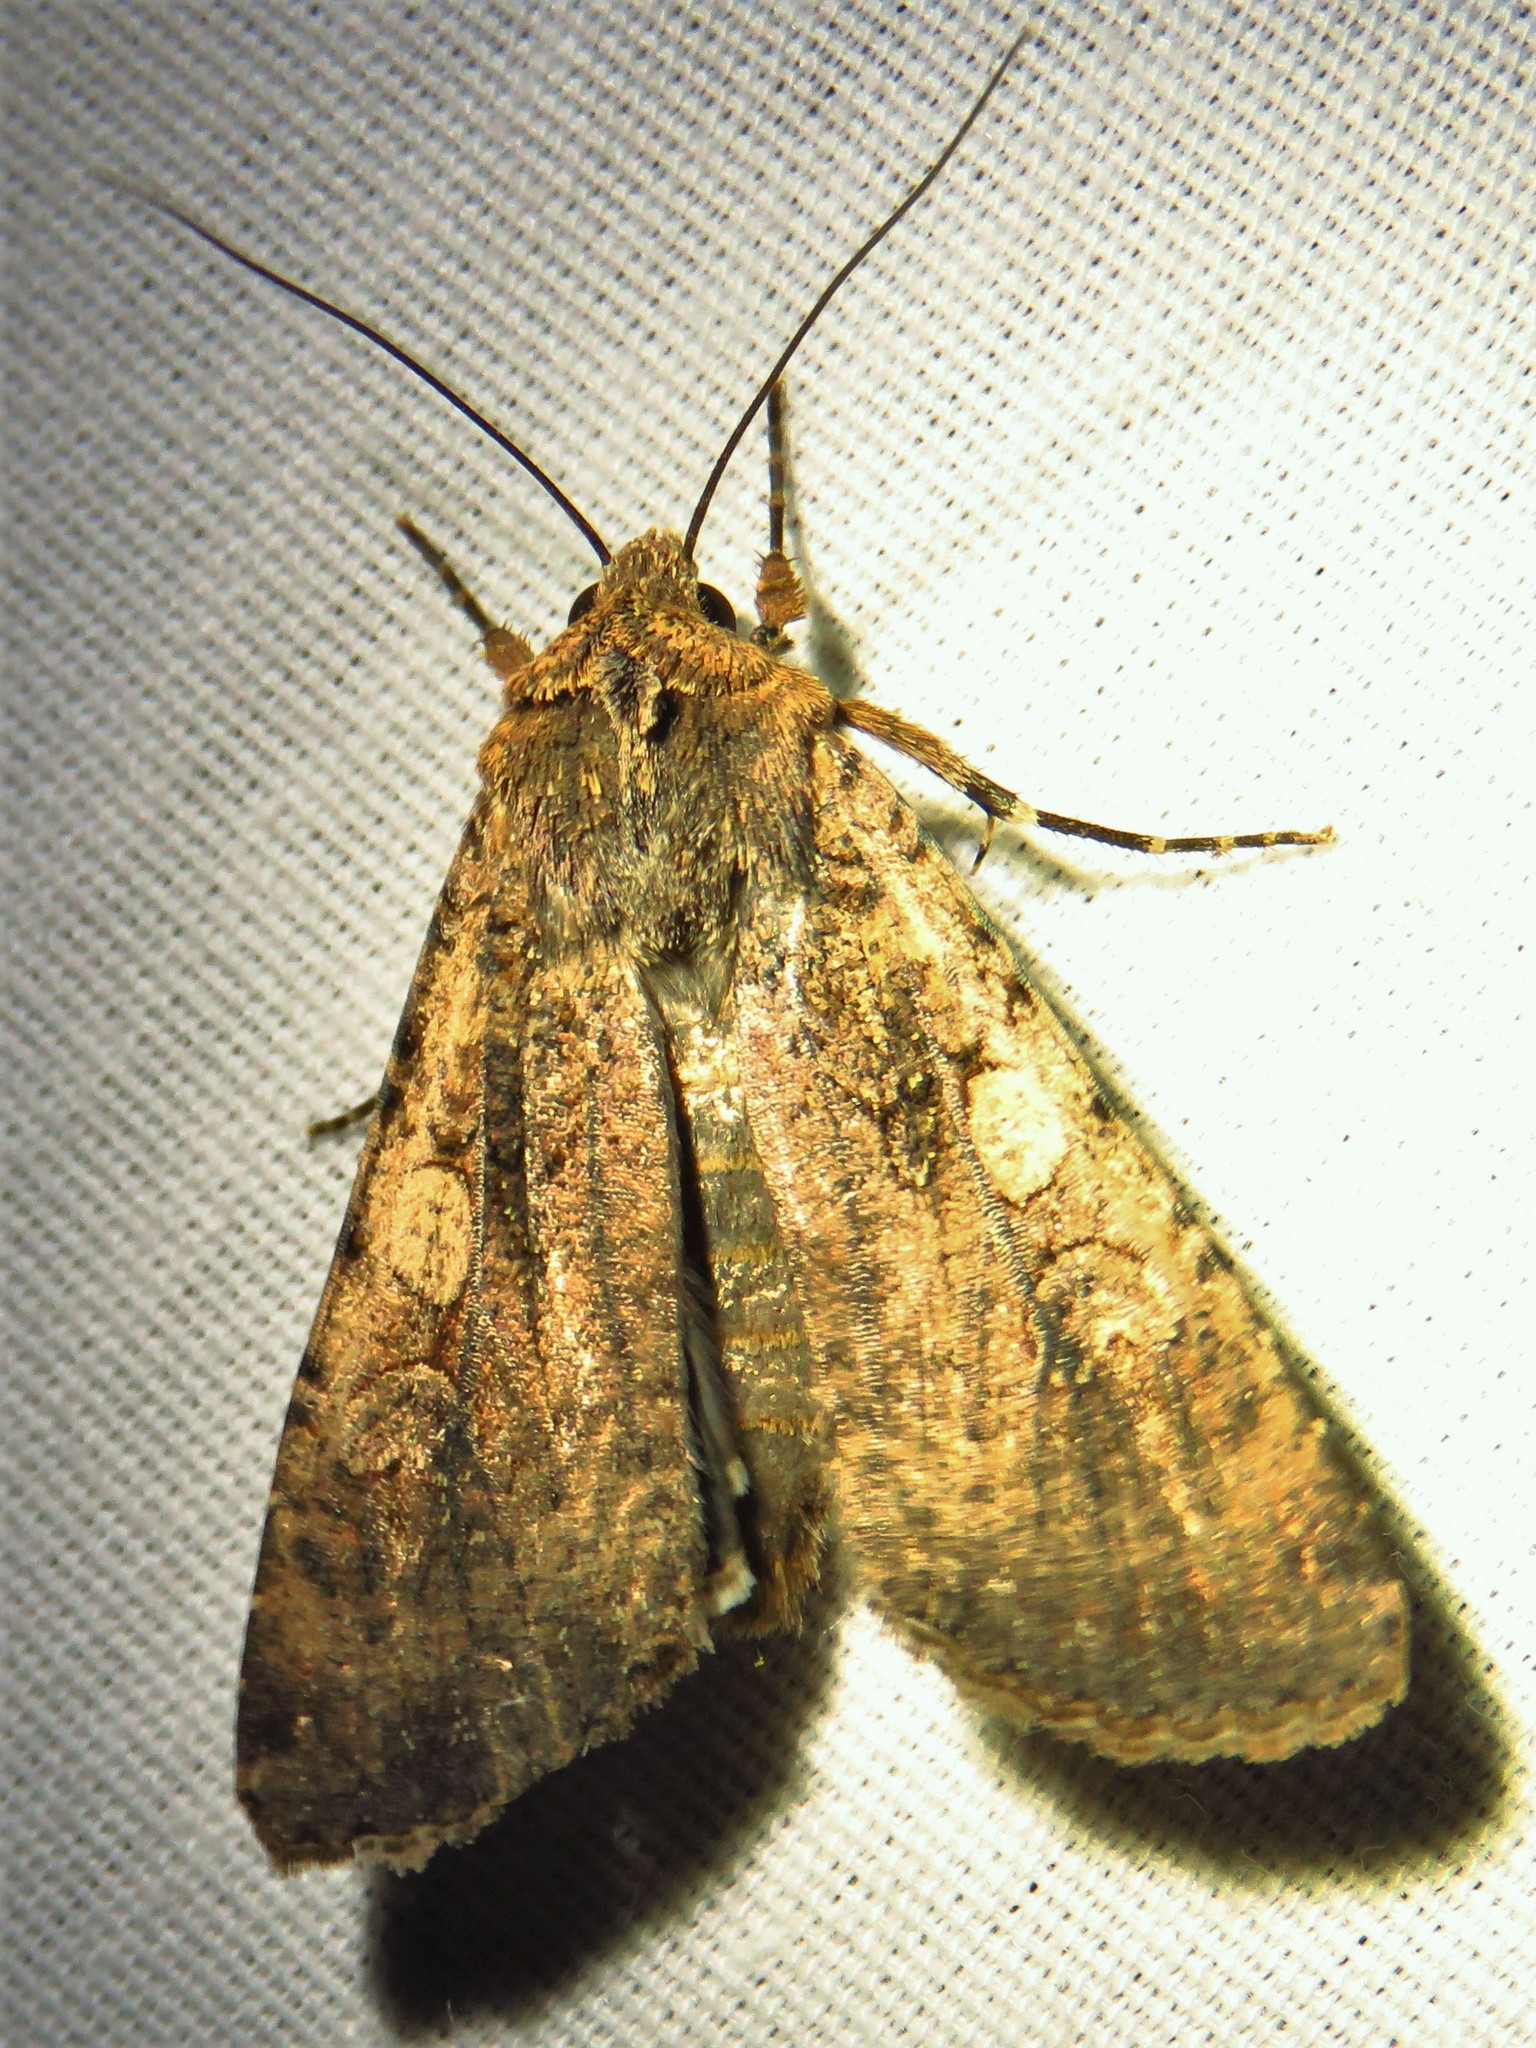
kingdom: Animalia
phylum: Arthropoda
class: Insecta
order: Lepidoptera
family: Noctuidae
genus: Peridroma
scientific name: Peridroma saucia
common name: Pearly underwing
